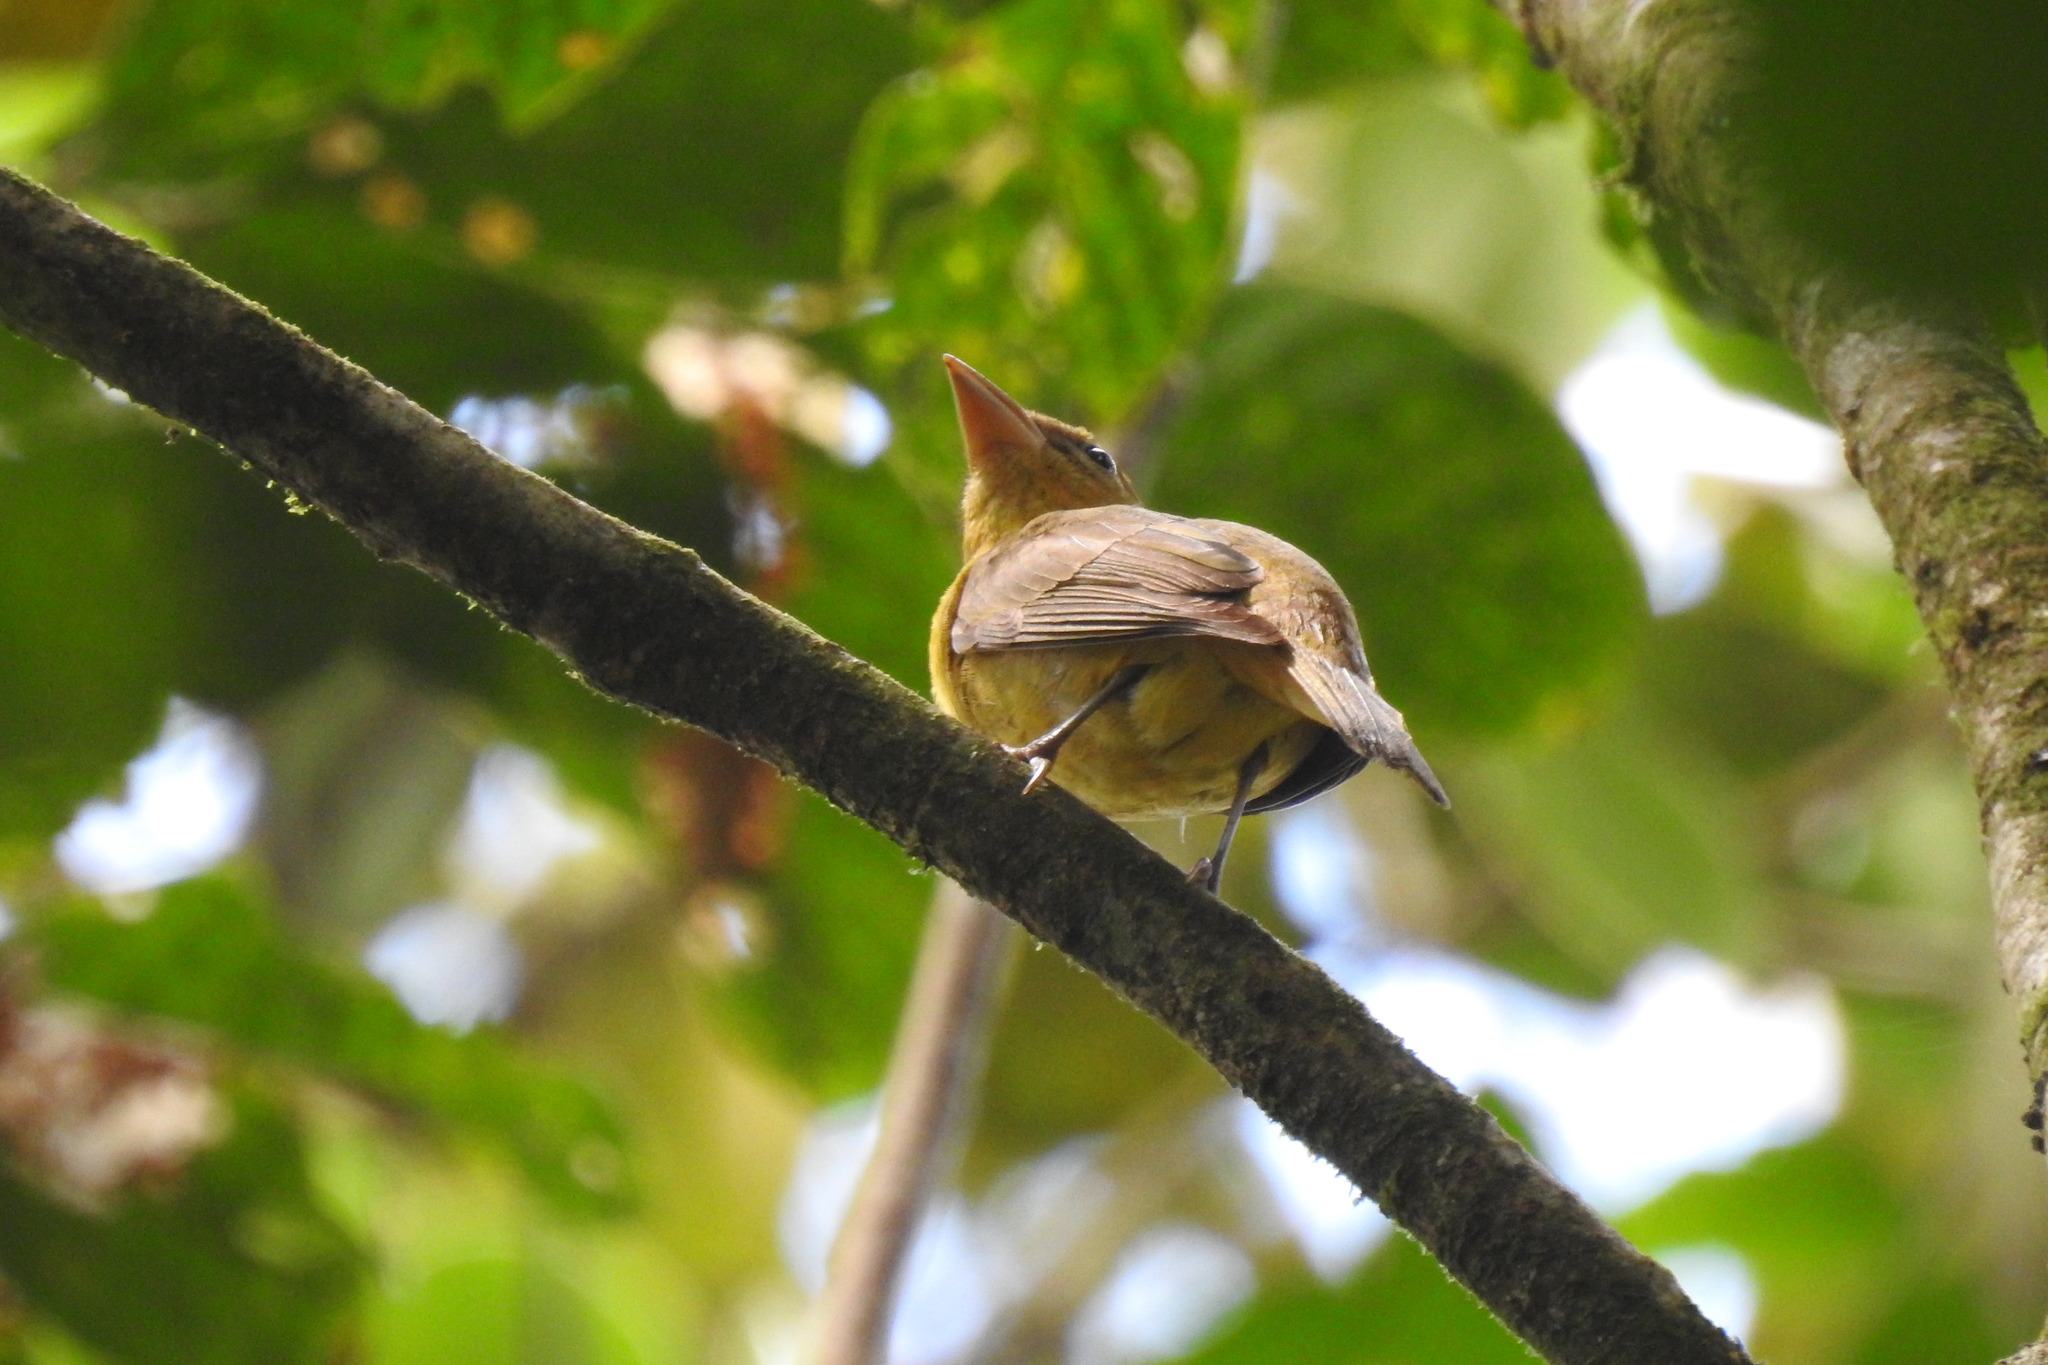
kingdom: Animalia
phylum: Chordata
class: Aves
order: Passeriformes
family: Cardinalidae
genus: Piranga
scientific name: Piranga rubra
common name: Summer tanager
